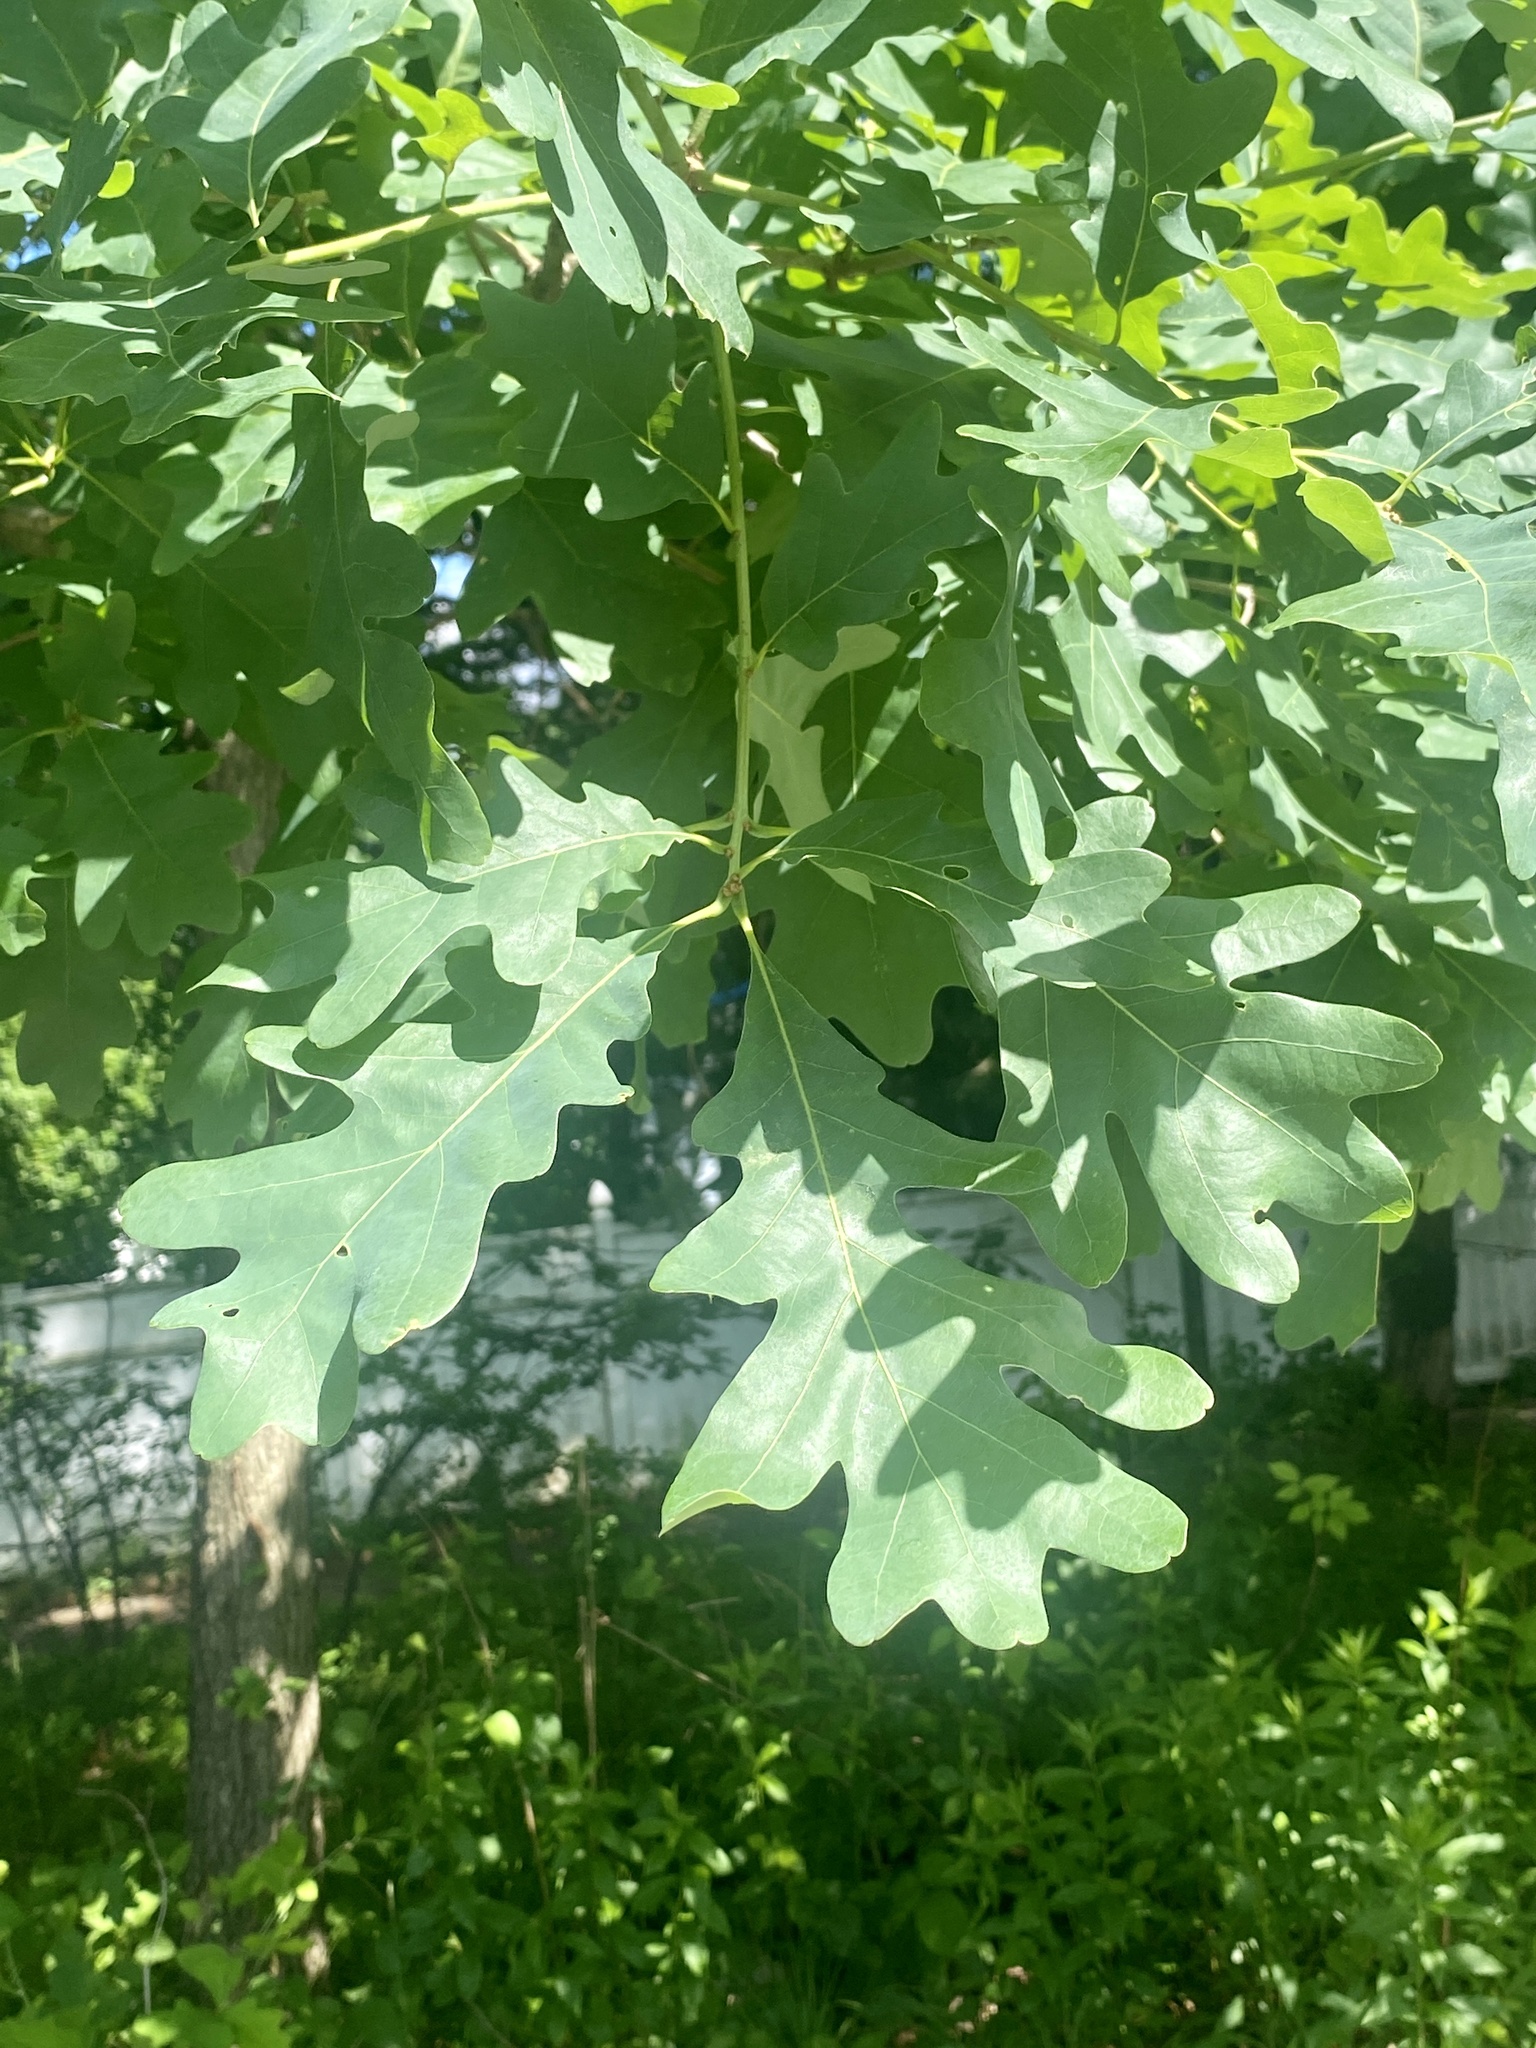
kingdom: Plantae
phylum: Tracheophyta
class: Magnoliopsida
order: Fagales
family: Fagaceae
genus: Quercus
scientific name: Quercus alba
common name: White oak
